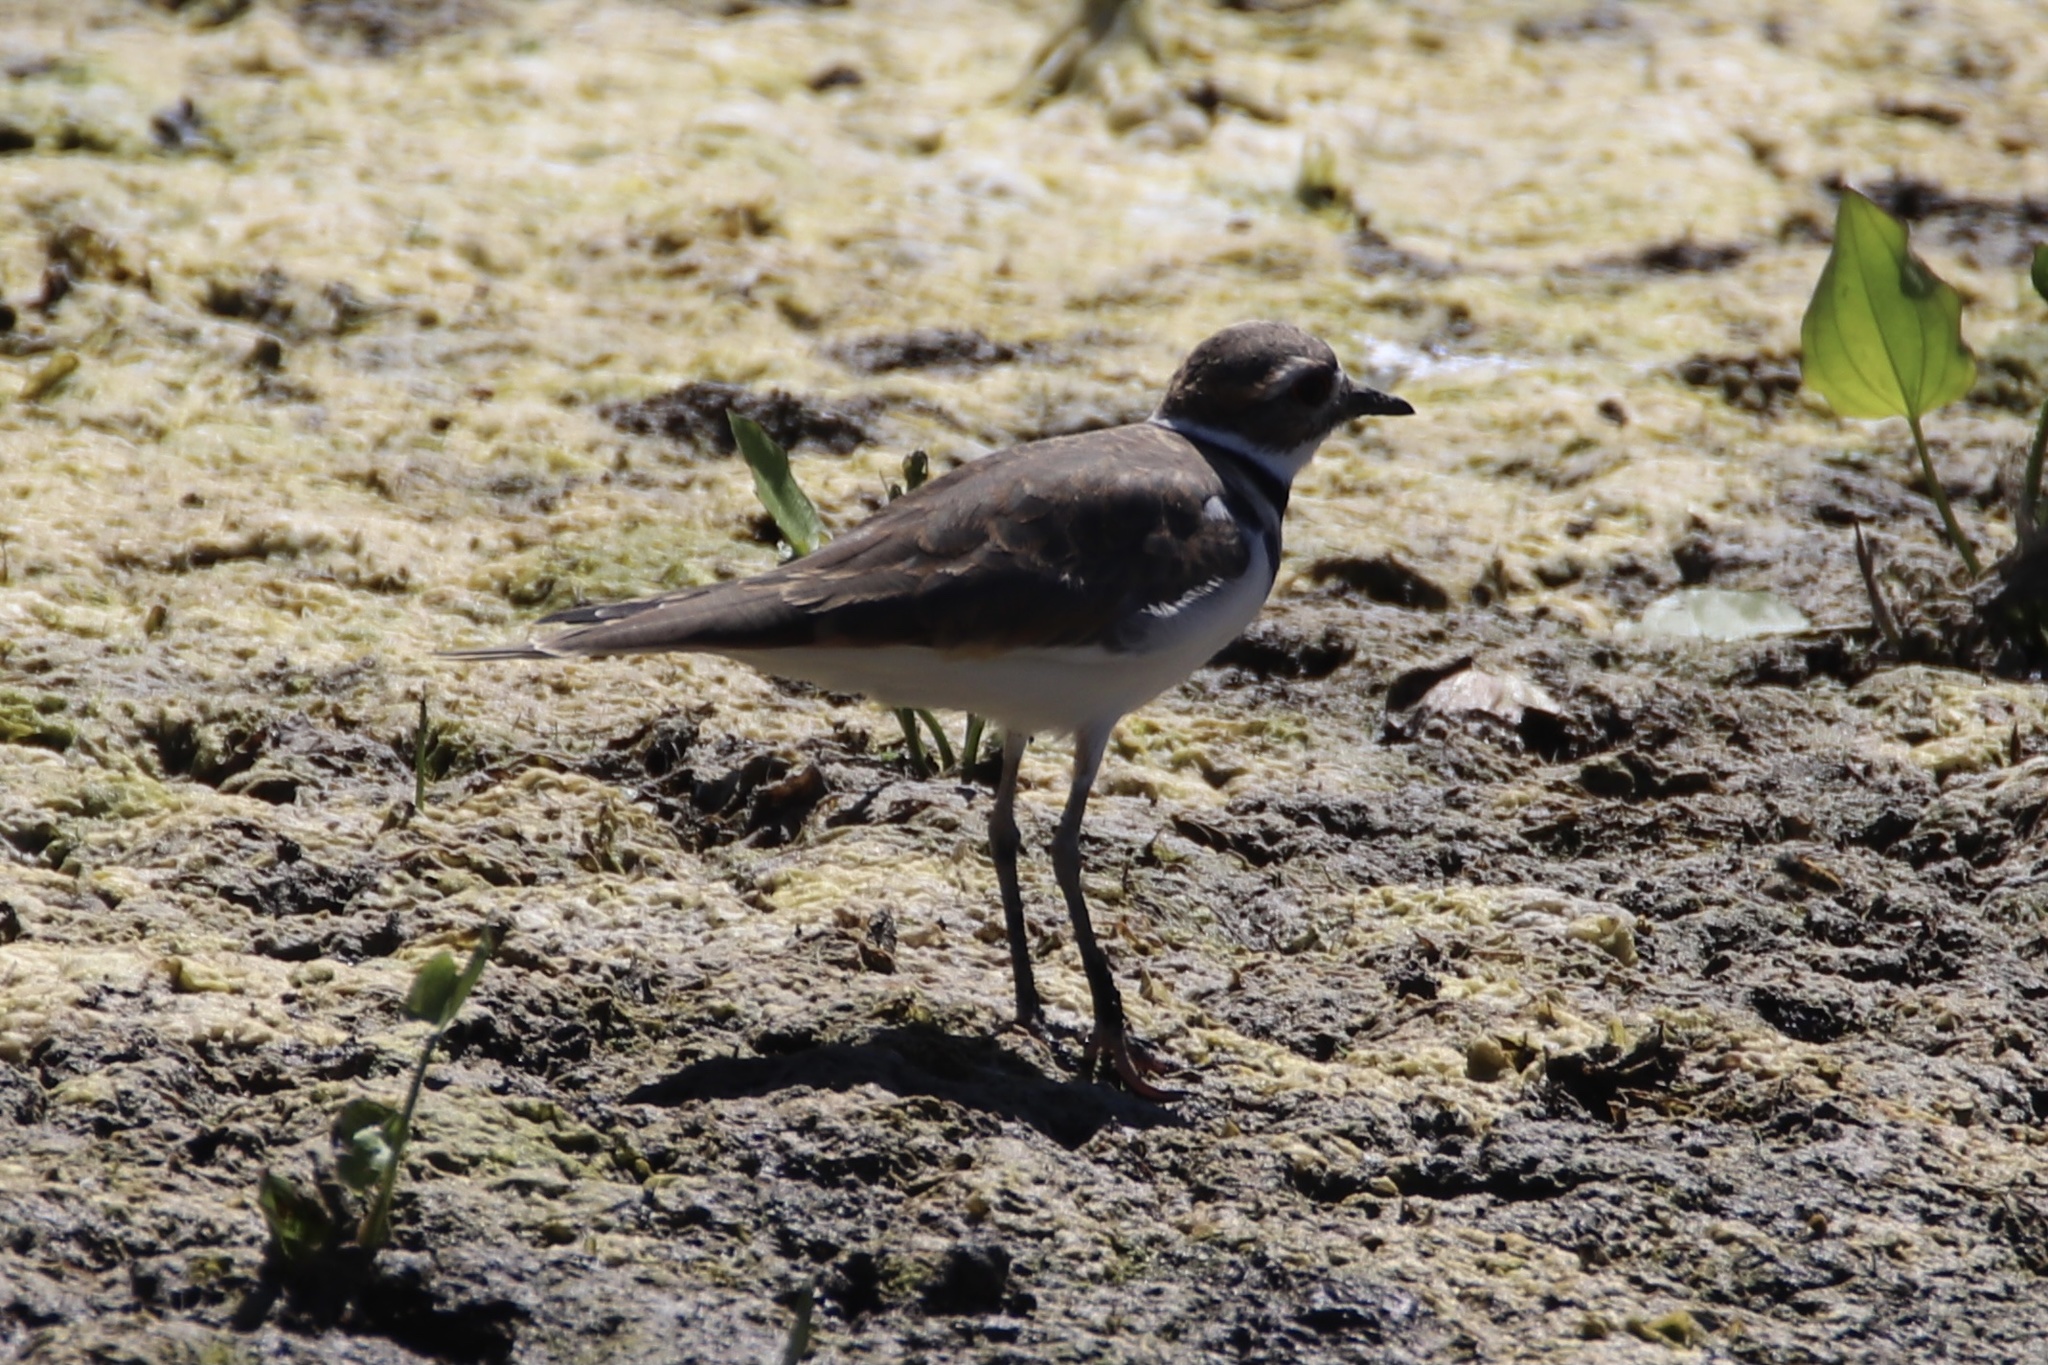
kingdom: Animalia
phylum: Chordata
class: Aves
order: Charadriiformes
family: Charadriidae
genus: Charadrius
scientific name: Charadrius vociferus
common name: Killdeer
